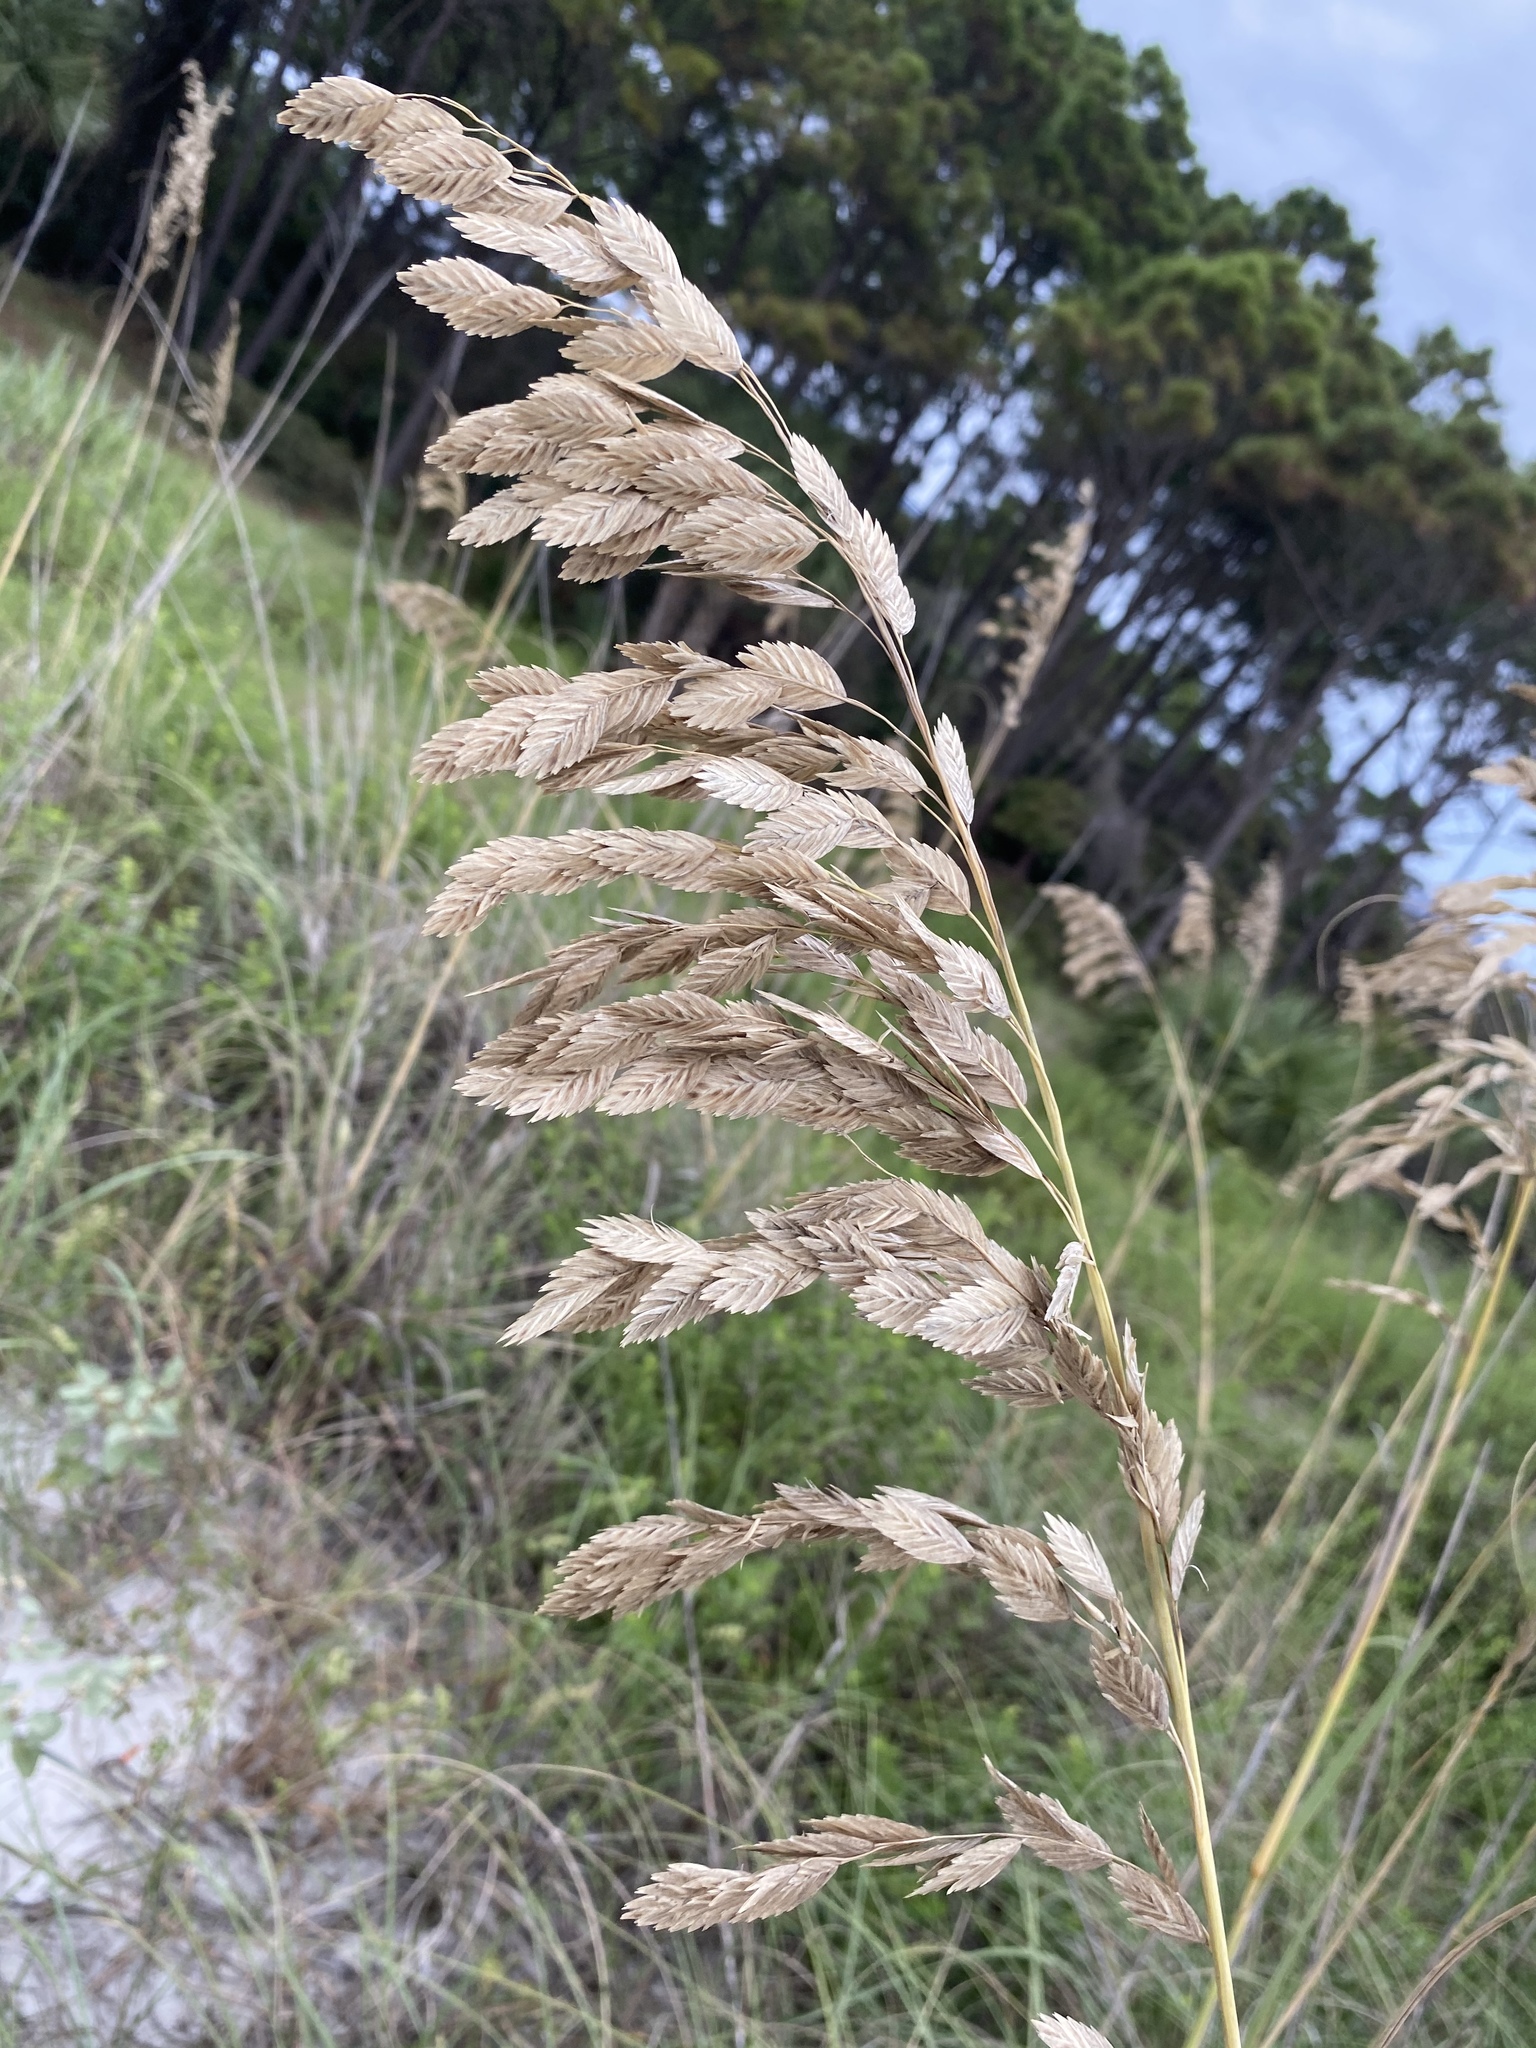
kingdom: Plantae
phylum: Tracheophyta
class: Liliopsida
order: Poales
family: Poaceae
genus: Uniola
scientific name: Uniola paniculata
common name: Seaside-oats
